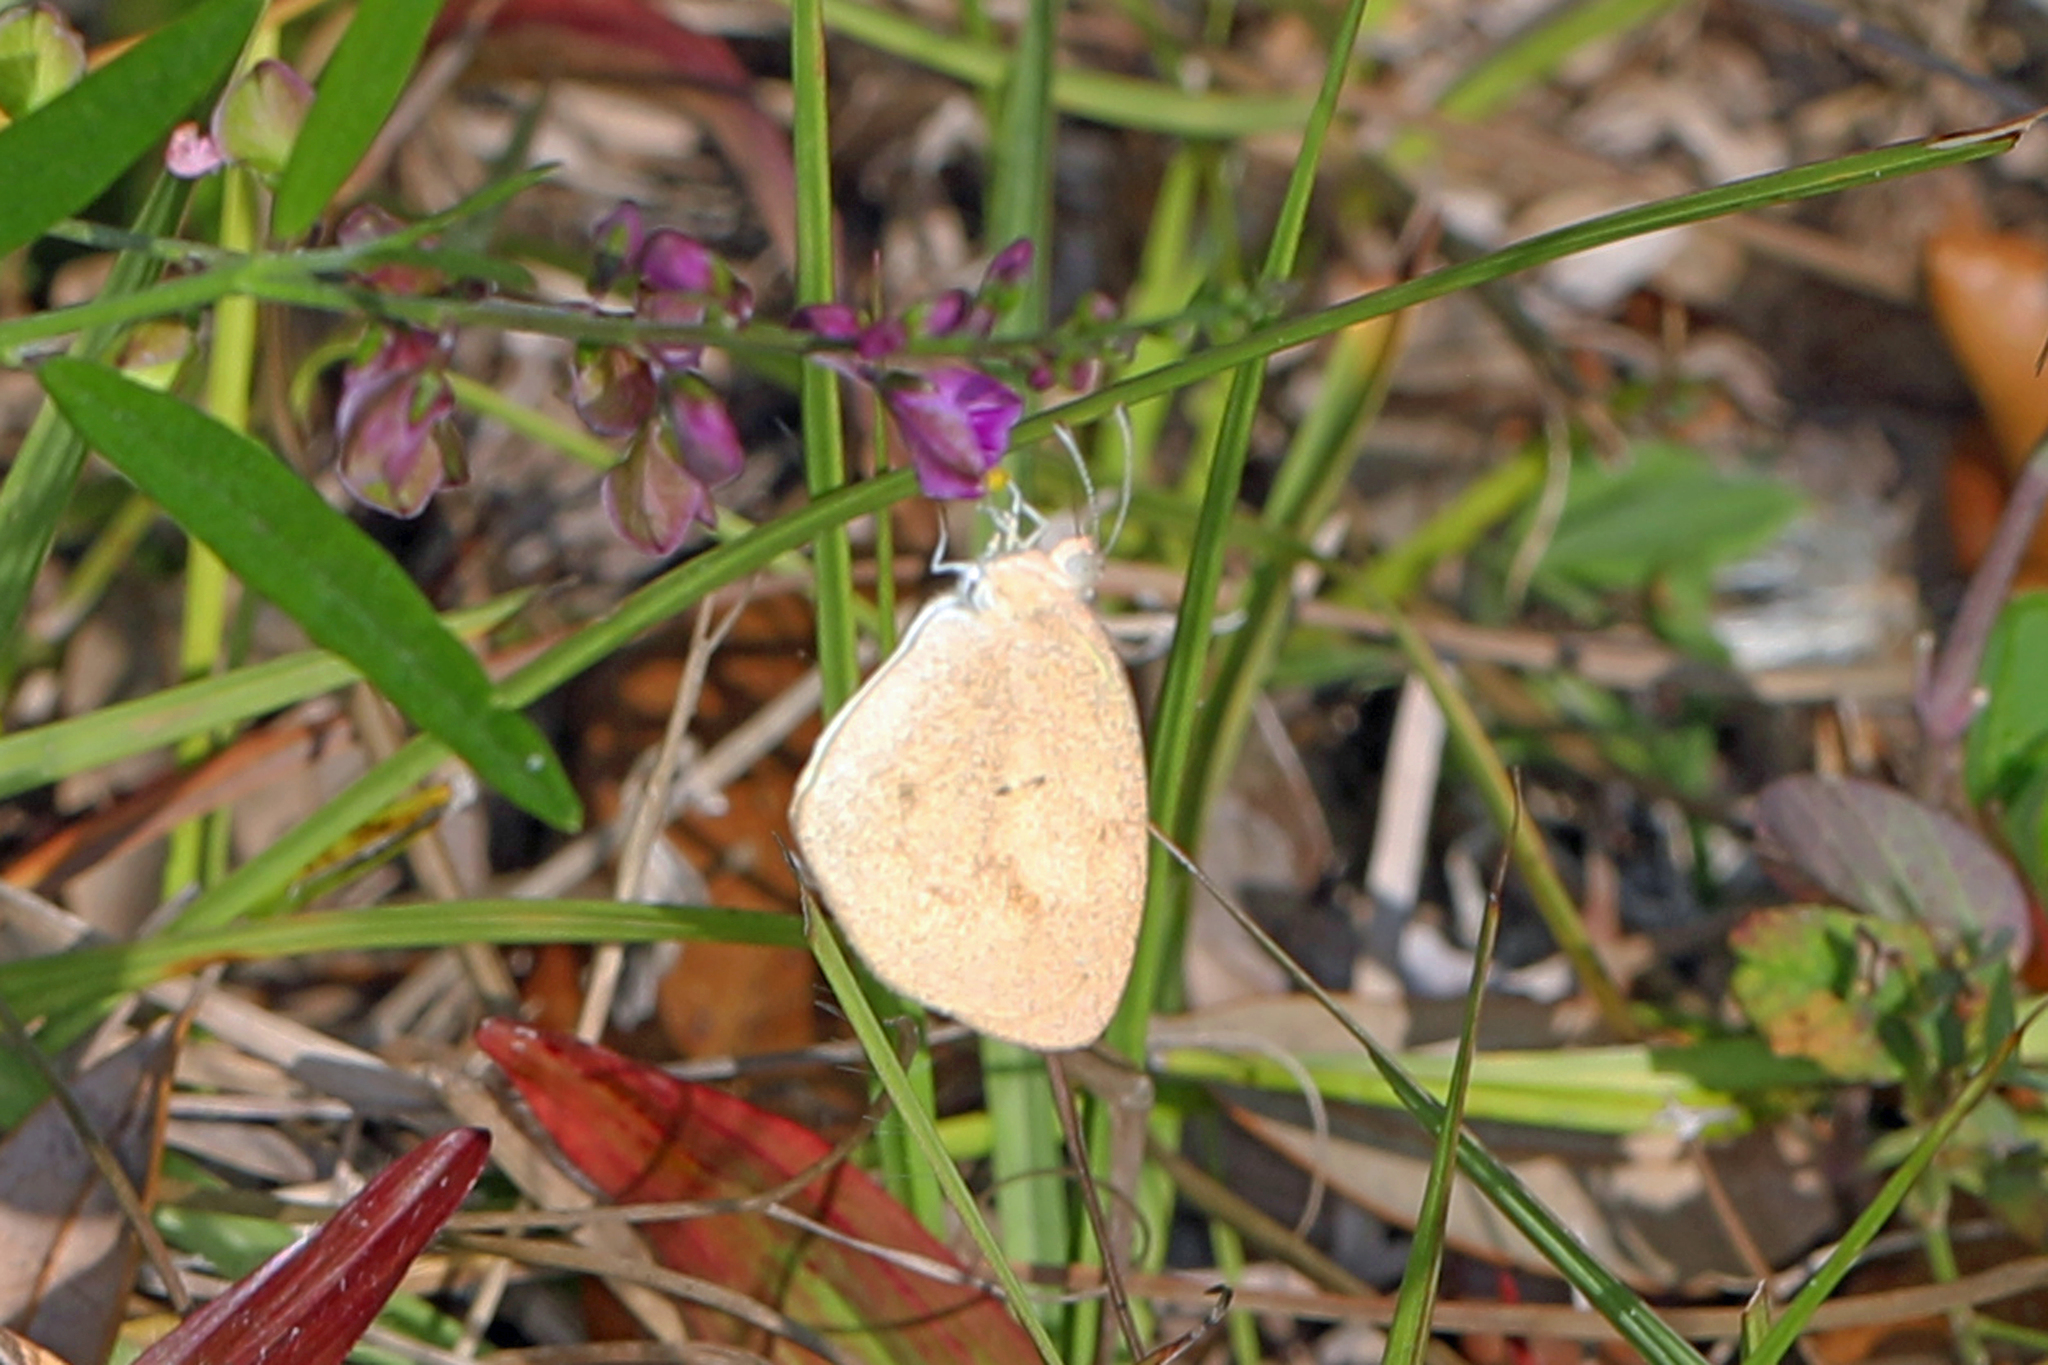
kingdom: Animalia
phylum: Arthropoda
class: Insecta
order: Lepidoptera
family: Pieridae
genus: Eurema
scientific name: Eurema daira
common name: Barred sulphur
